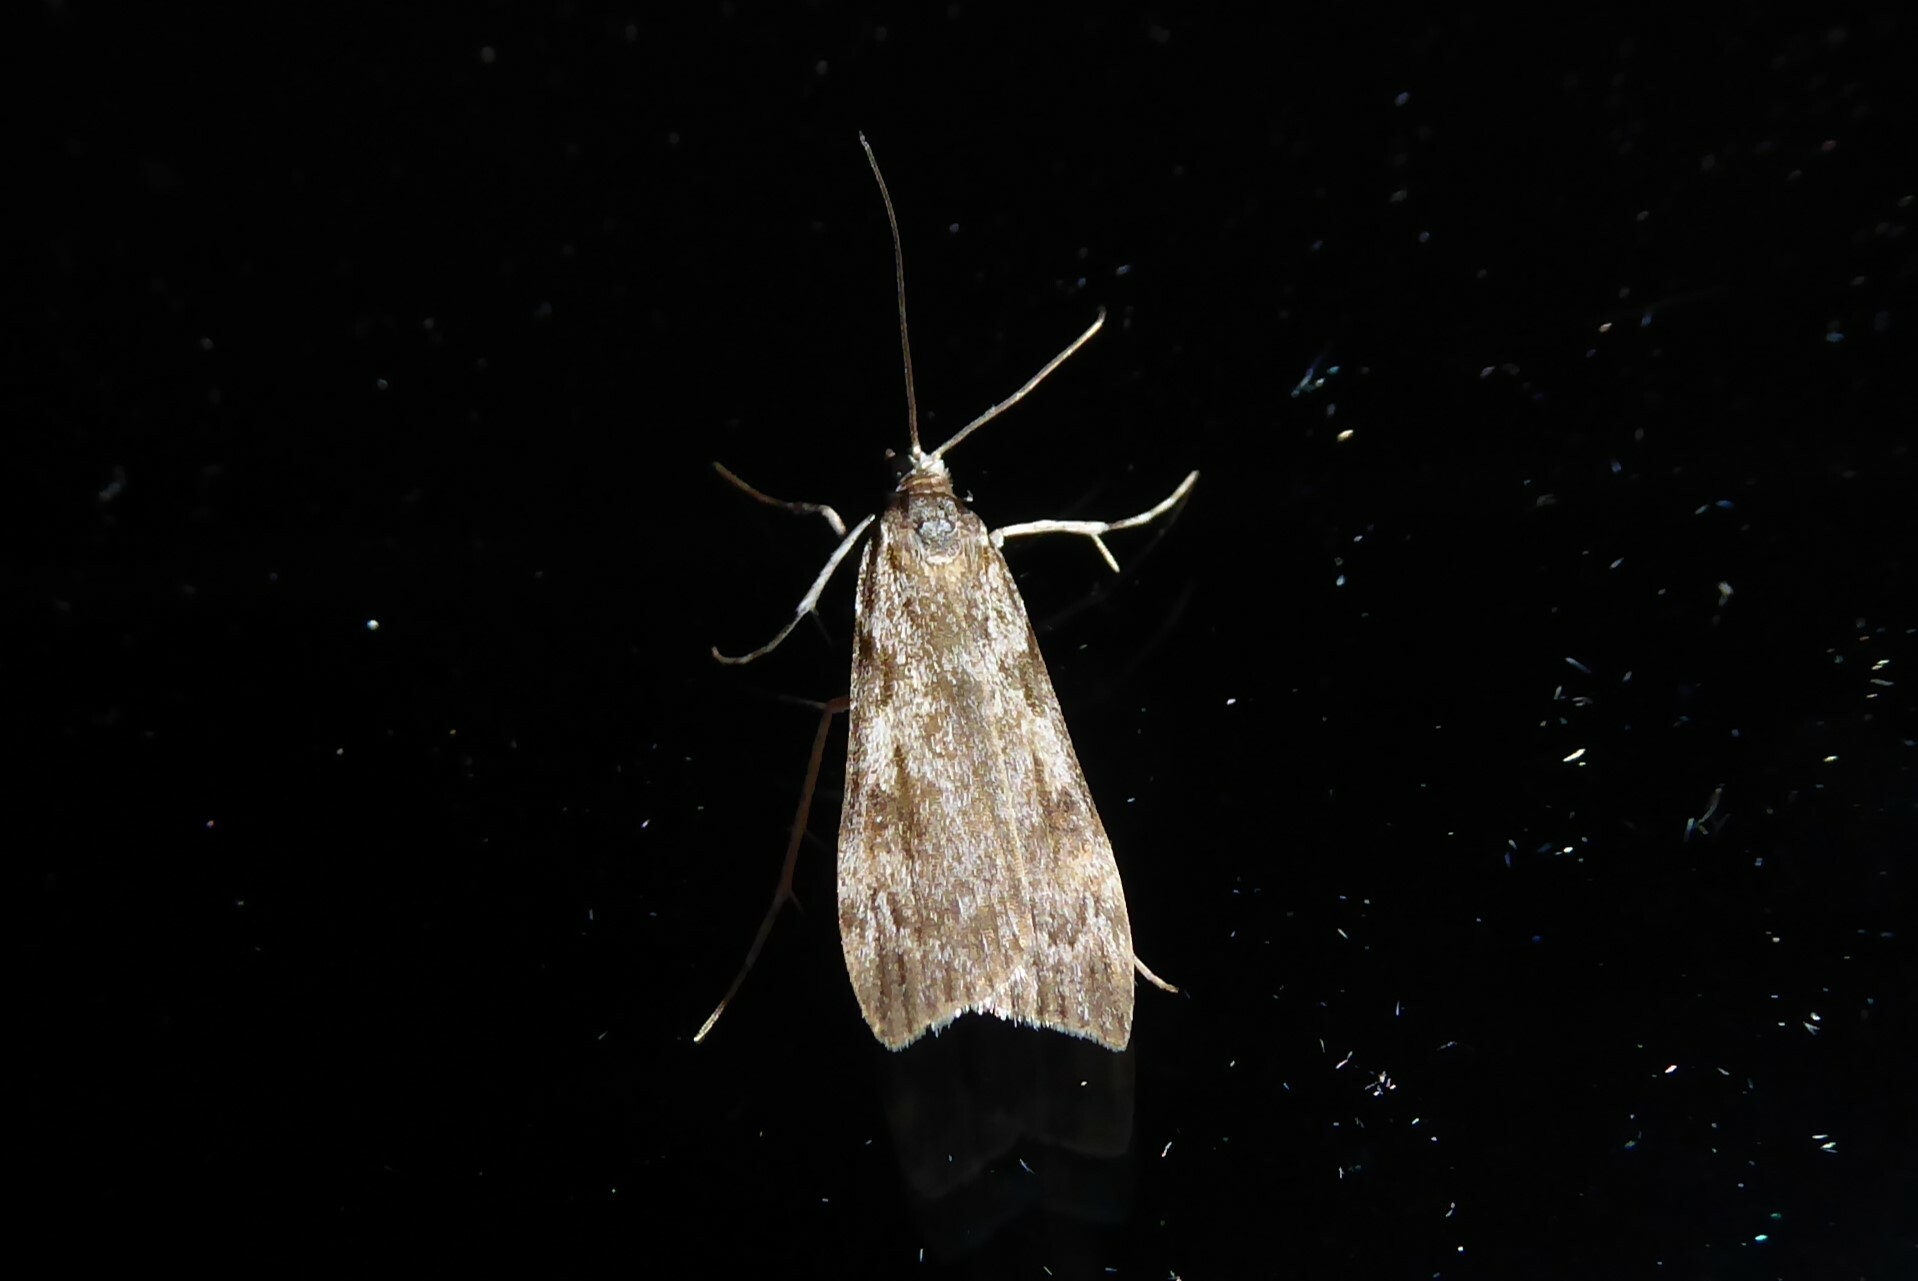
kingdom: Animalia
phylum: Arthropoda
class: Insecta
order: Lepidoptera
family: Crambidae
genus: Scoparia
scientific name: Scoparia halopis
